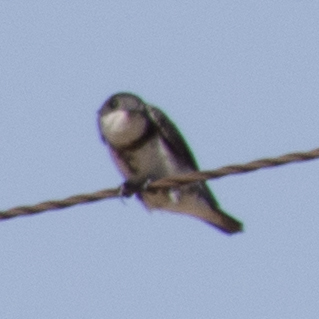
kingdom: Animalia
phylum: Chordata
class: Aves
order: Passeriformes
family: Hirundinidae
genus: Riparia
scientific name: Riparia riparia
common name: Sand martin
